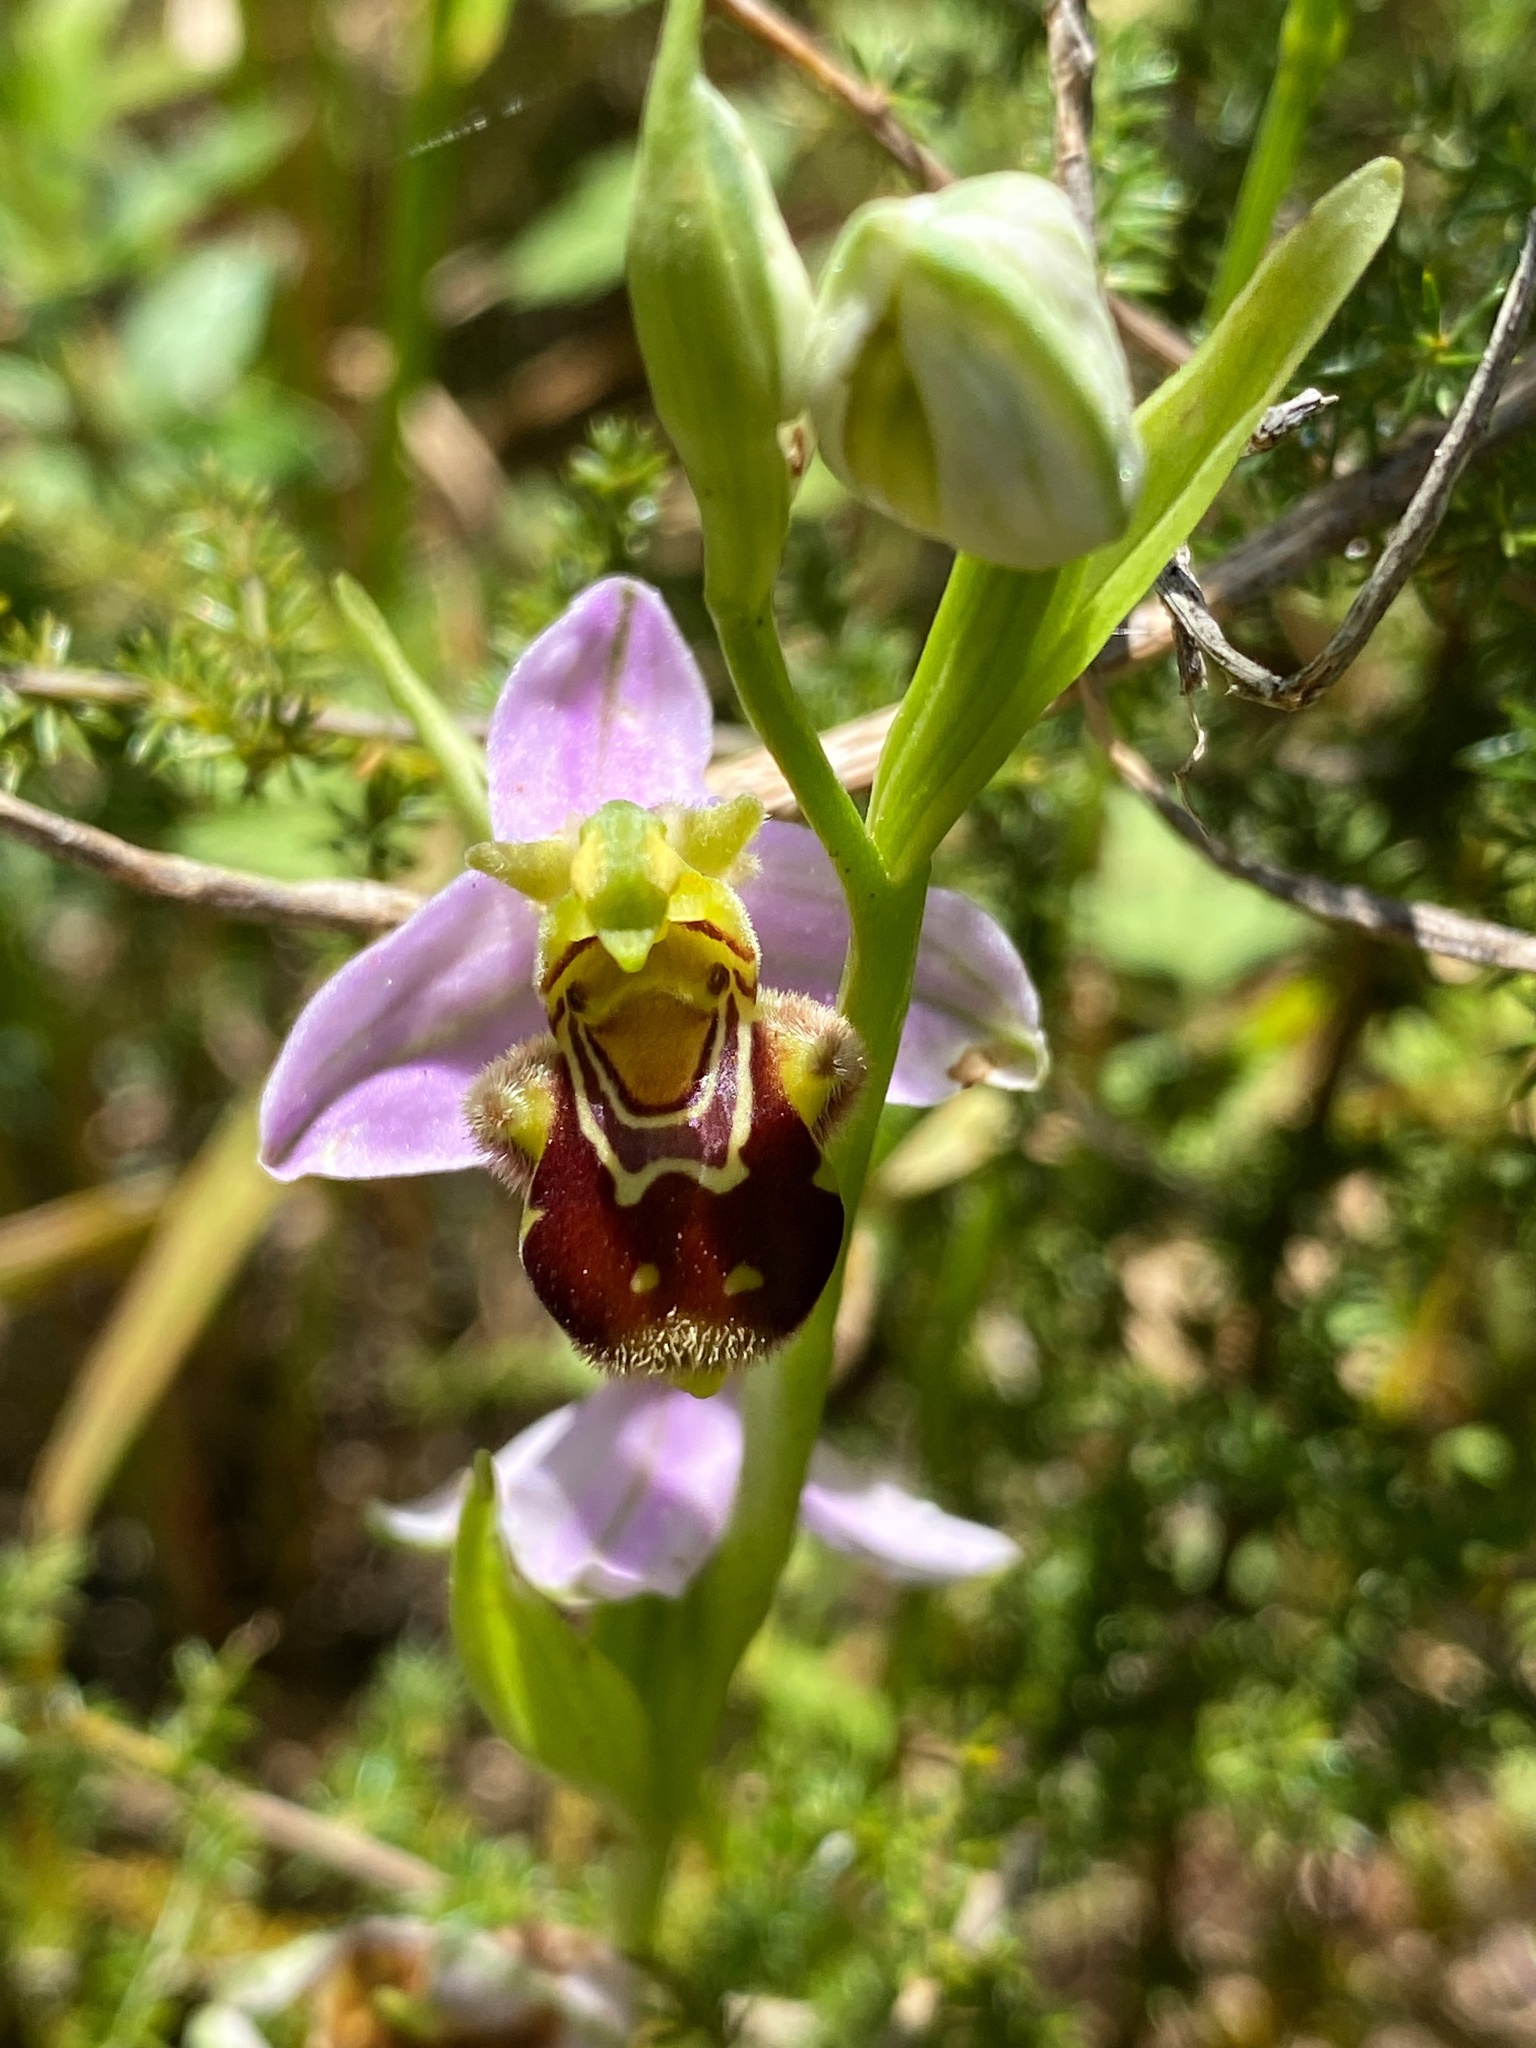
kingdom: Plantae
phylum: Tracheophyta
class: Liliopsida
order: Asparagales
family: Orchidaceae
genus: Ophrys
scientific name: Ophrys apifera
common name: Bee orchid
